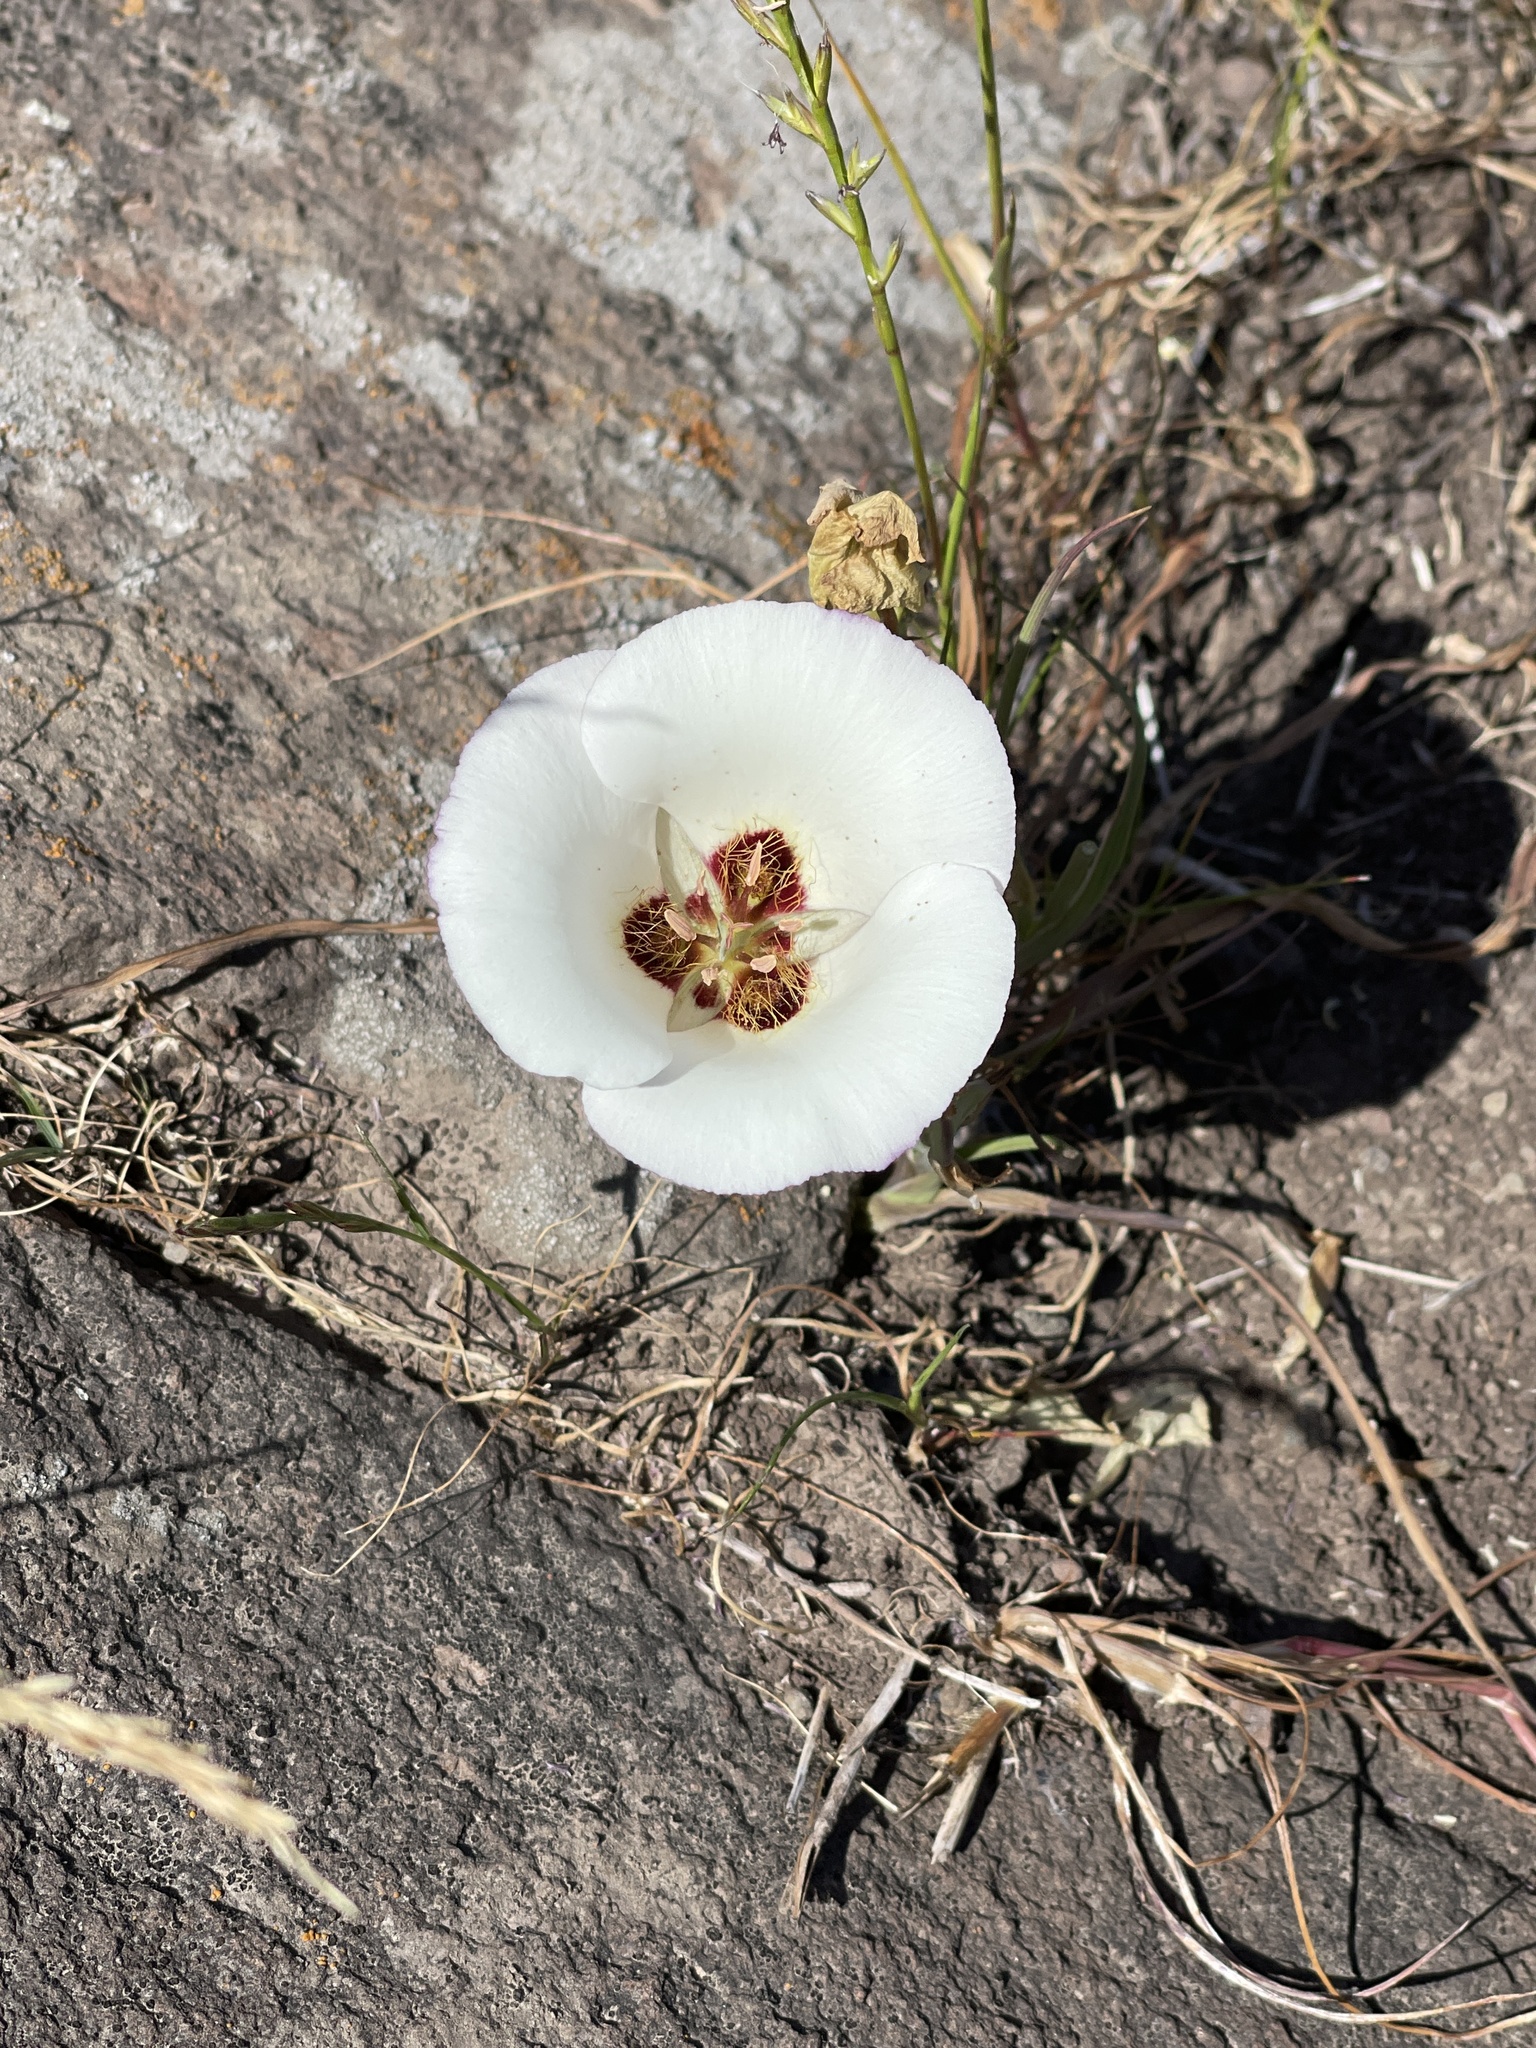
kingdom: Plantae
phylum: Tracheophyta
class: Liliopsida
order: Liliales
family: Liliaceae
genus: Calochortus
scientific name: Calochortus catalinae
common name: Catalina mariposa-lily
